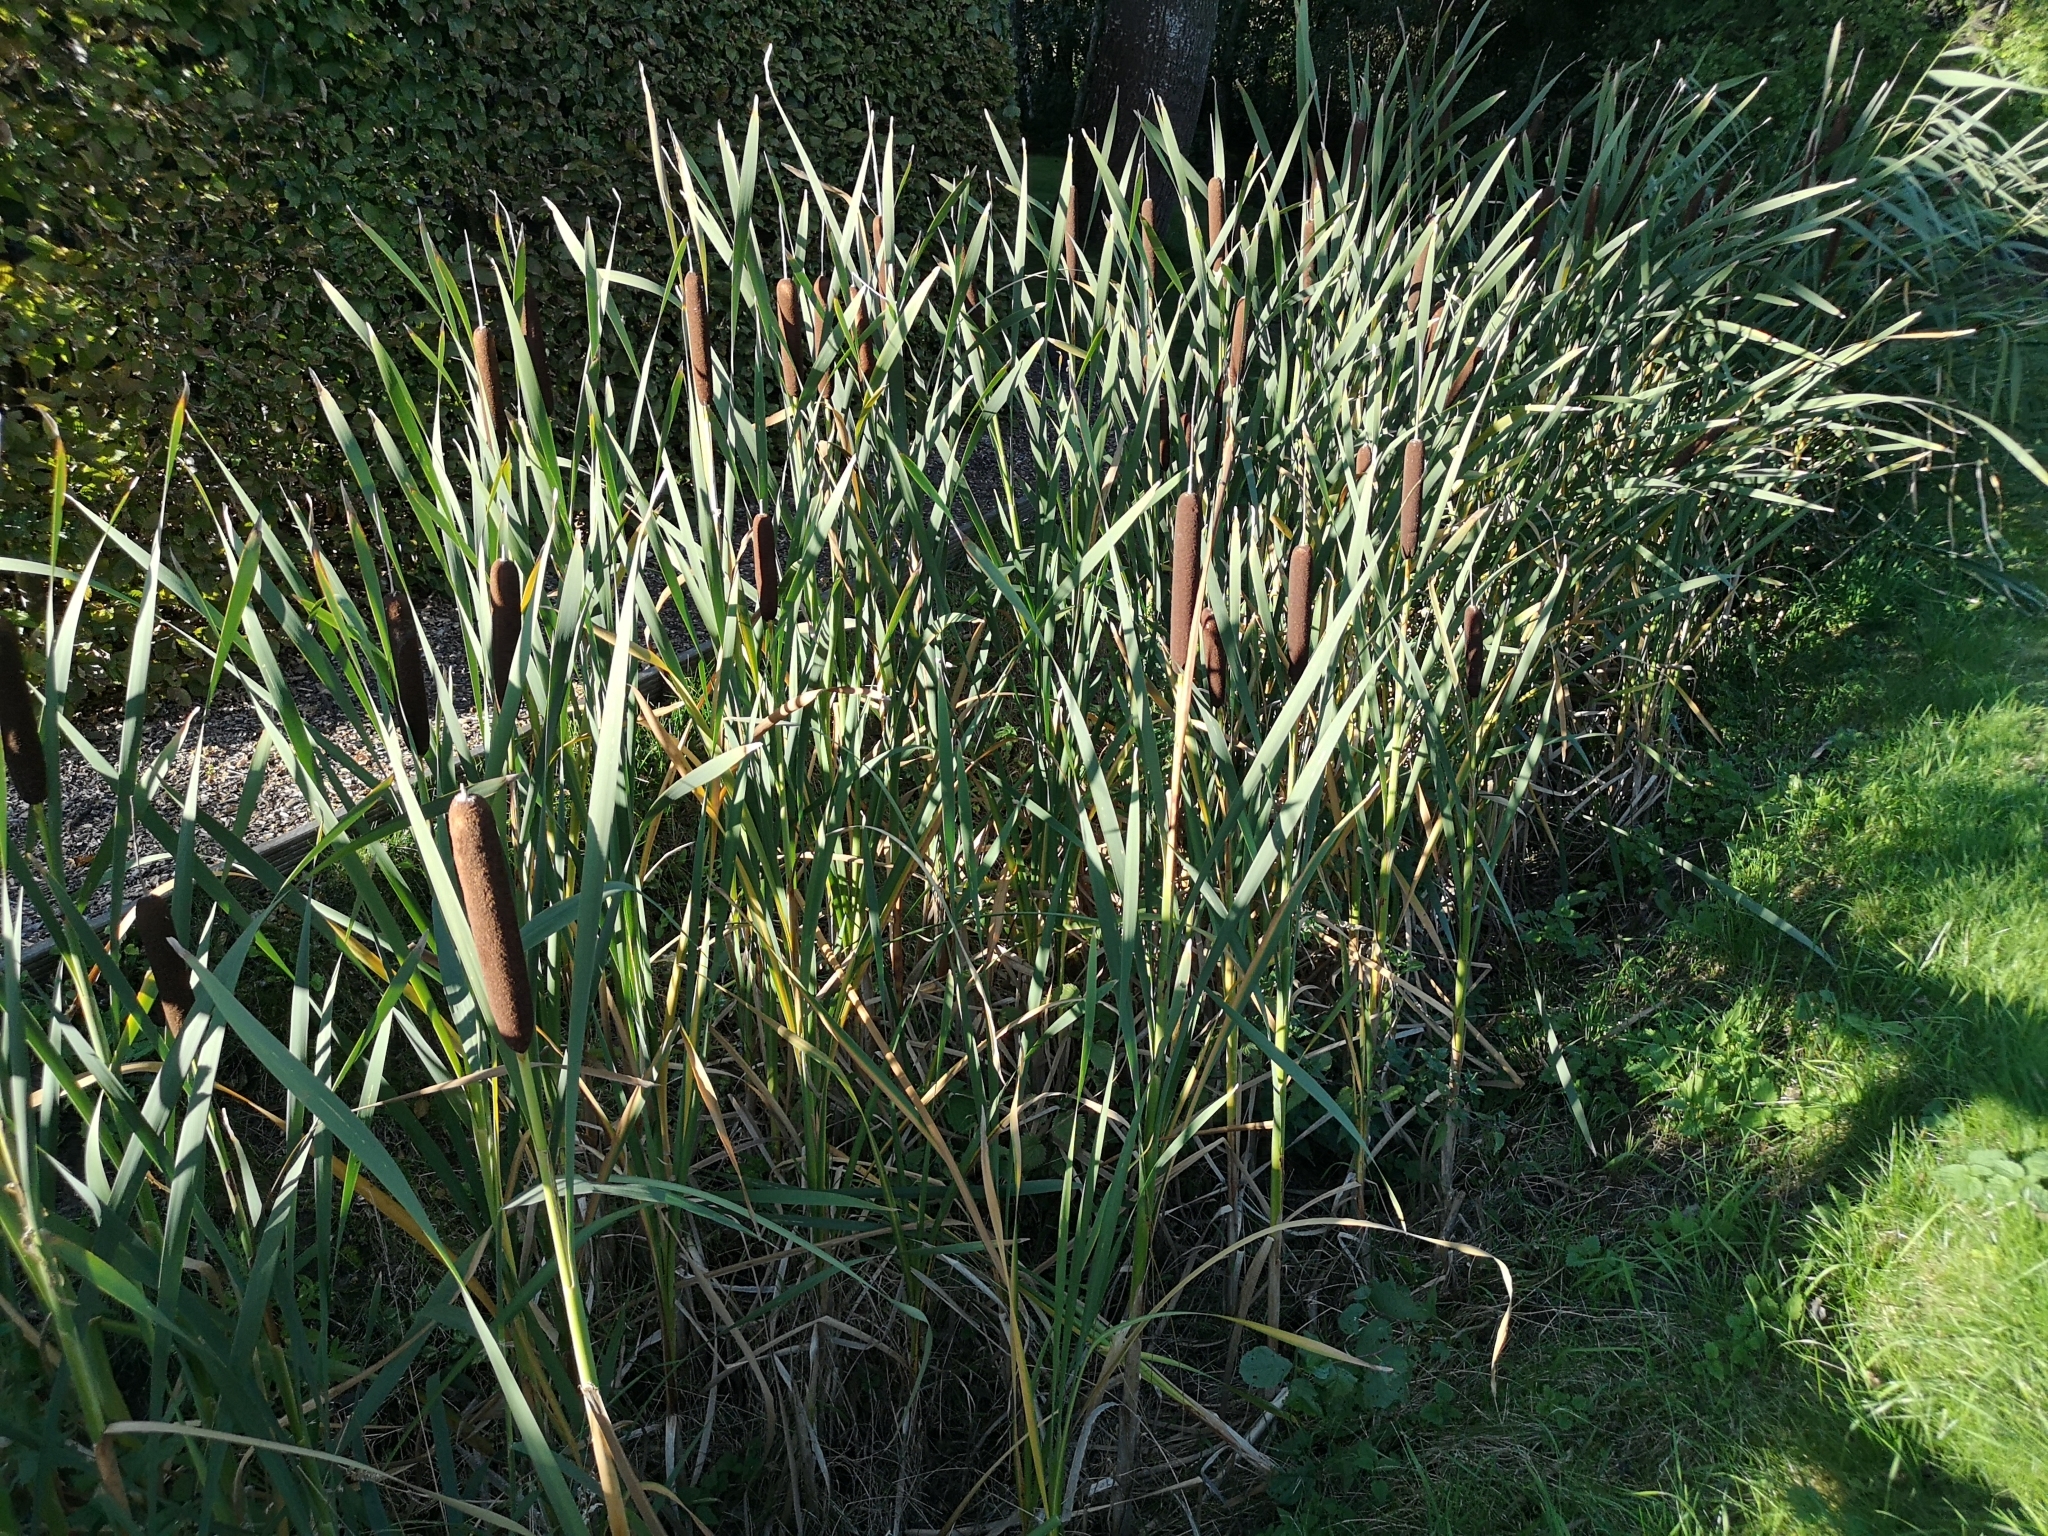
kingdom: Plantae
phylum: Tracheophyta
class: Liliopsida
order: Poales
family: Typhaceae
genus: Typha
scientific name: Typha latifolia
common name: Broadleaf cattail
